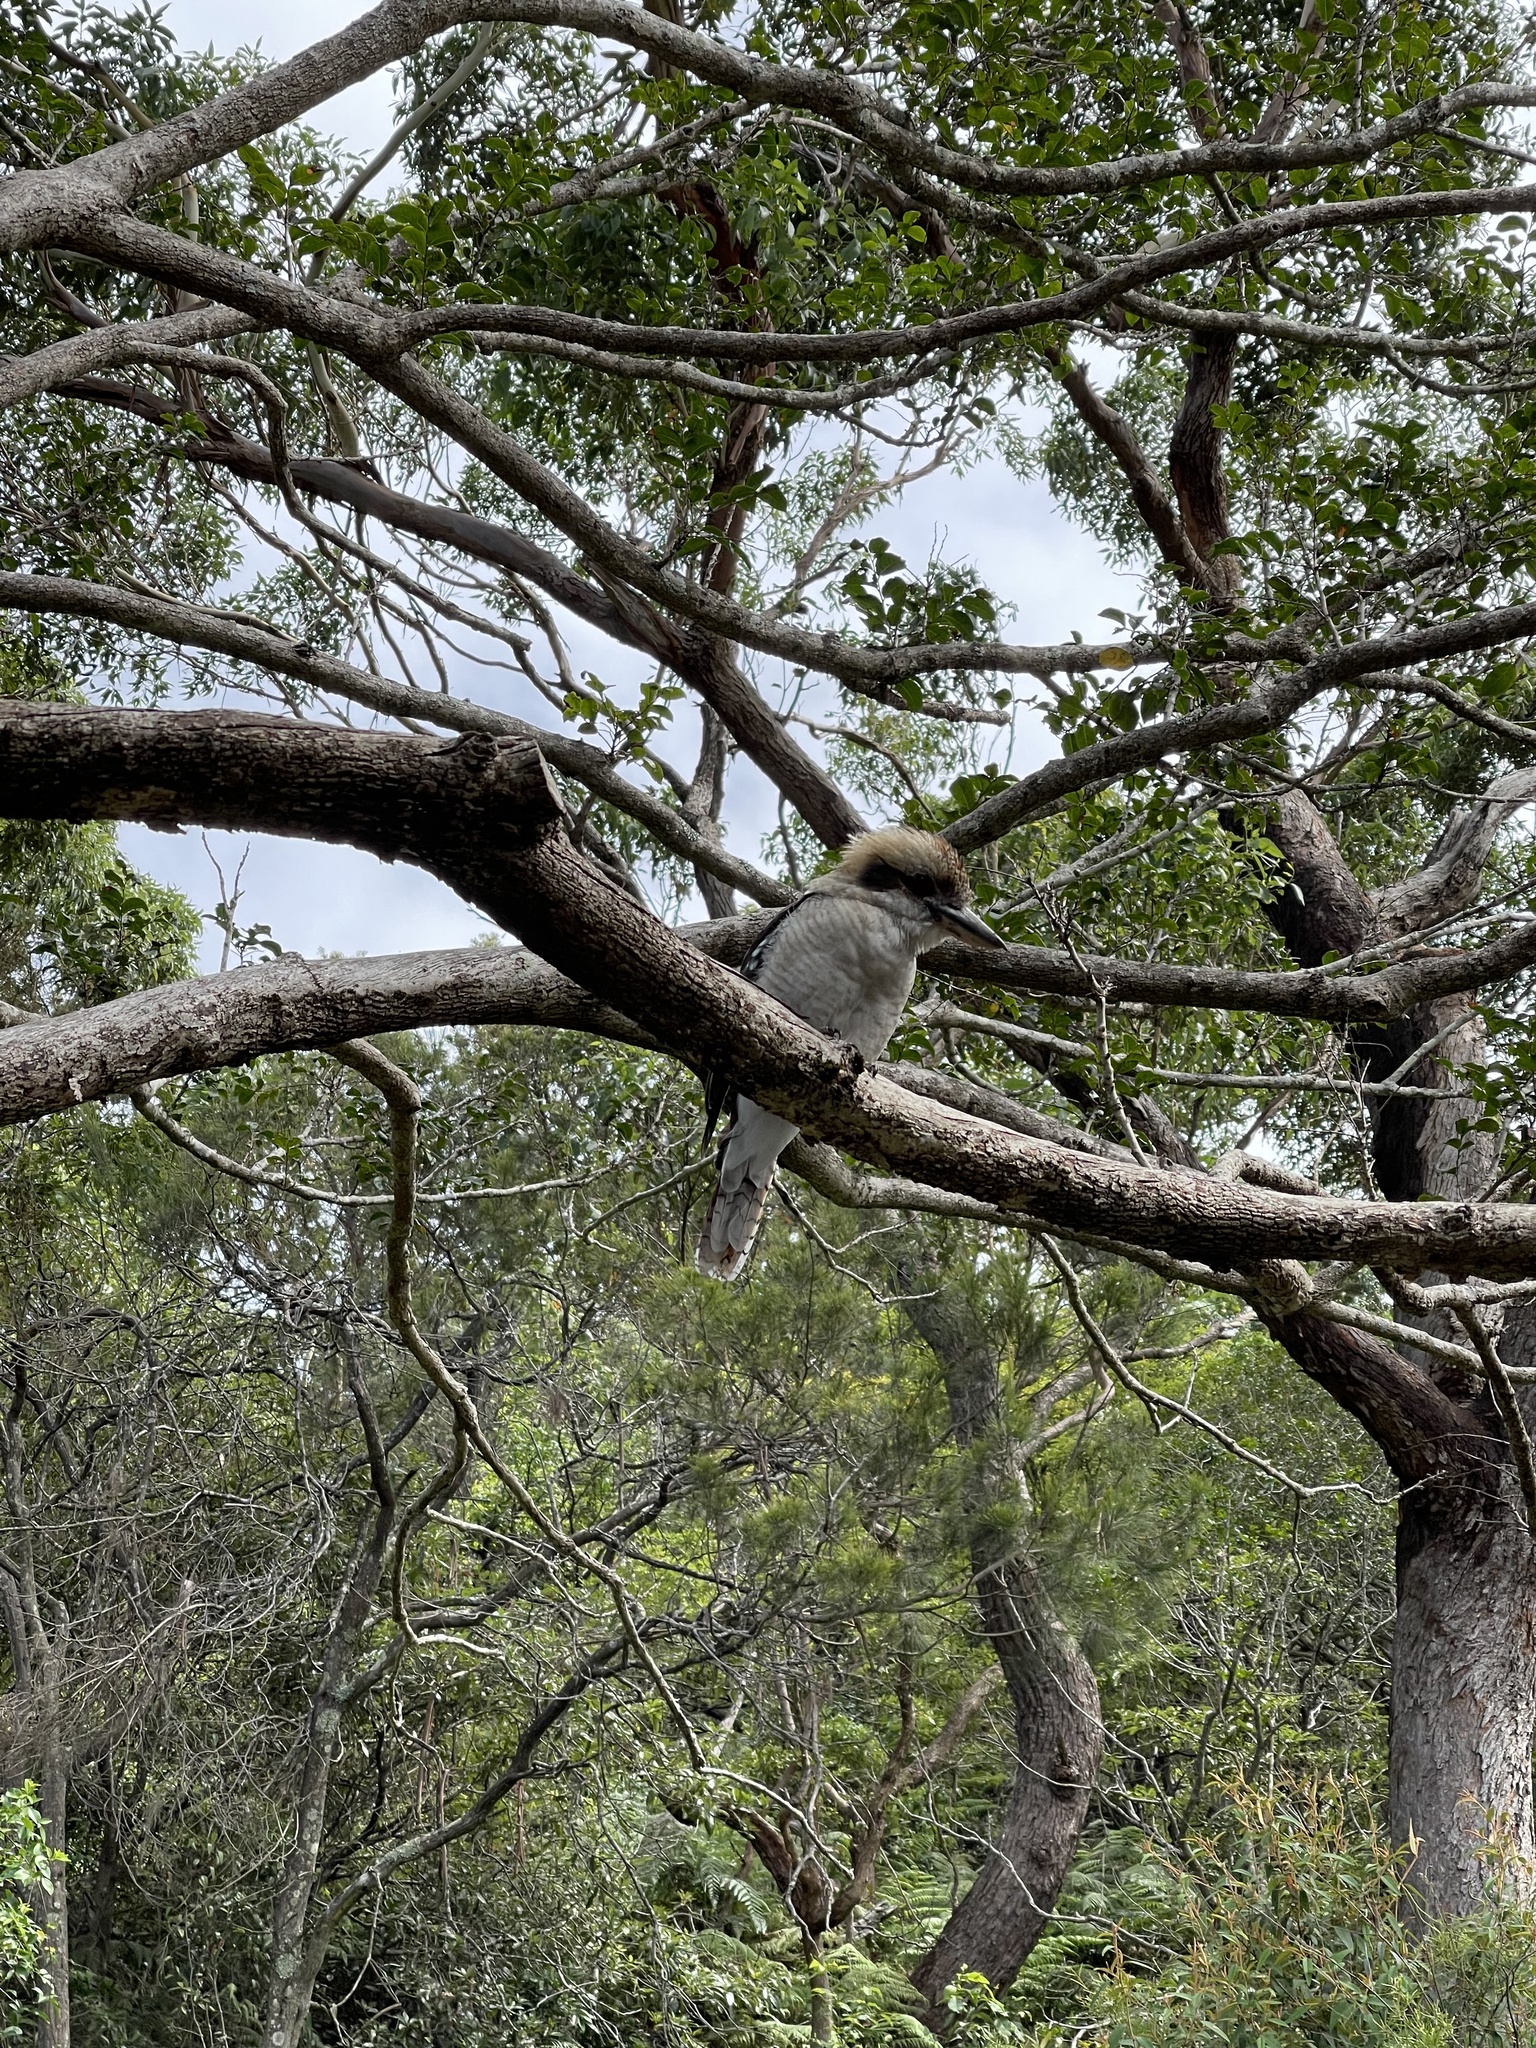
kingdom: Animalia
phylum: Chordata
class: Aves
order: Coraciiformes
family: Alcedinidae
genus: Dacelo
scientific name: Dacelo novaeguineae
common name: Laughing kookaburra
